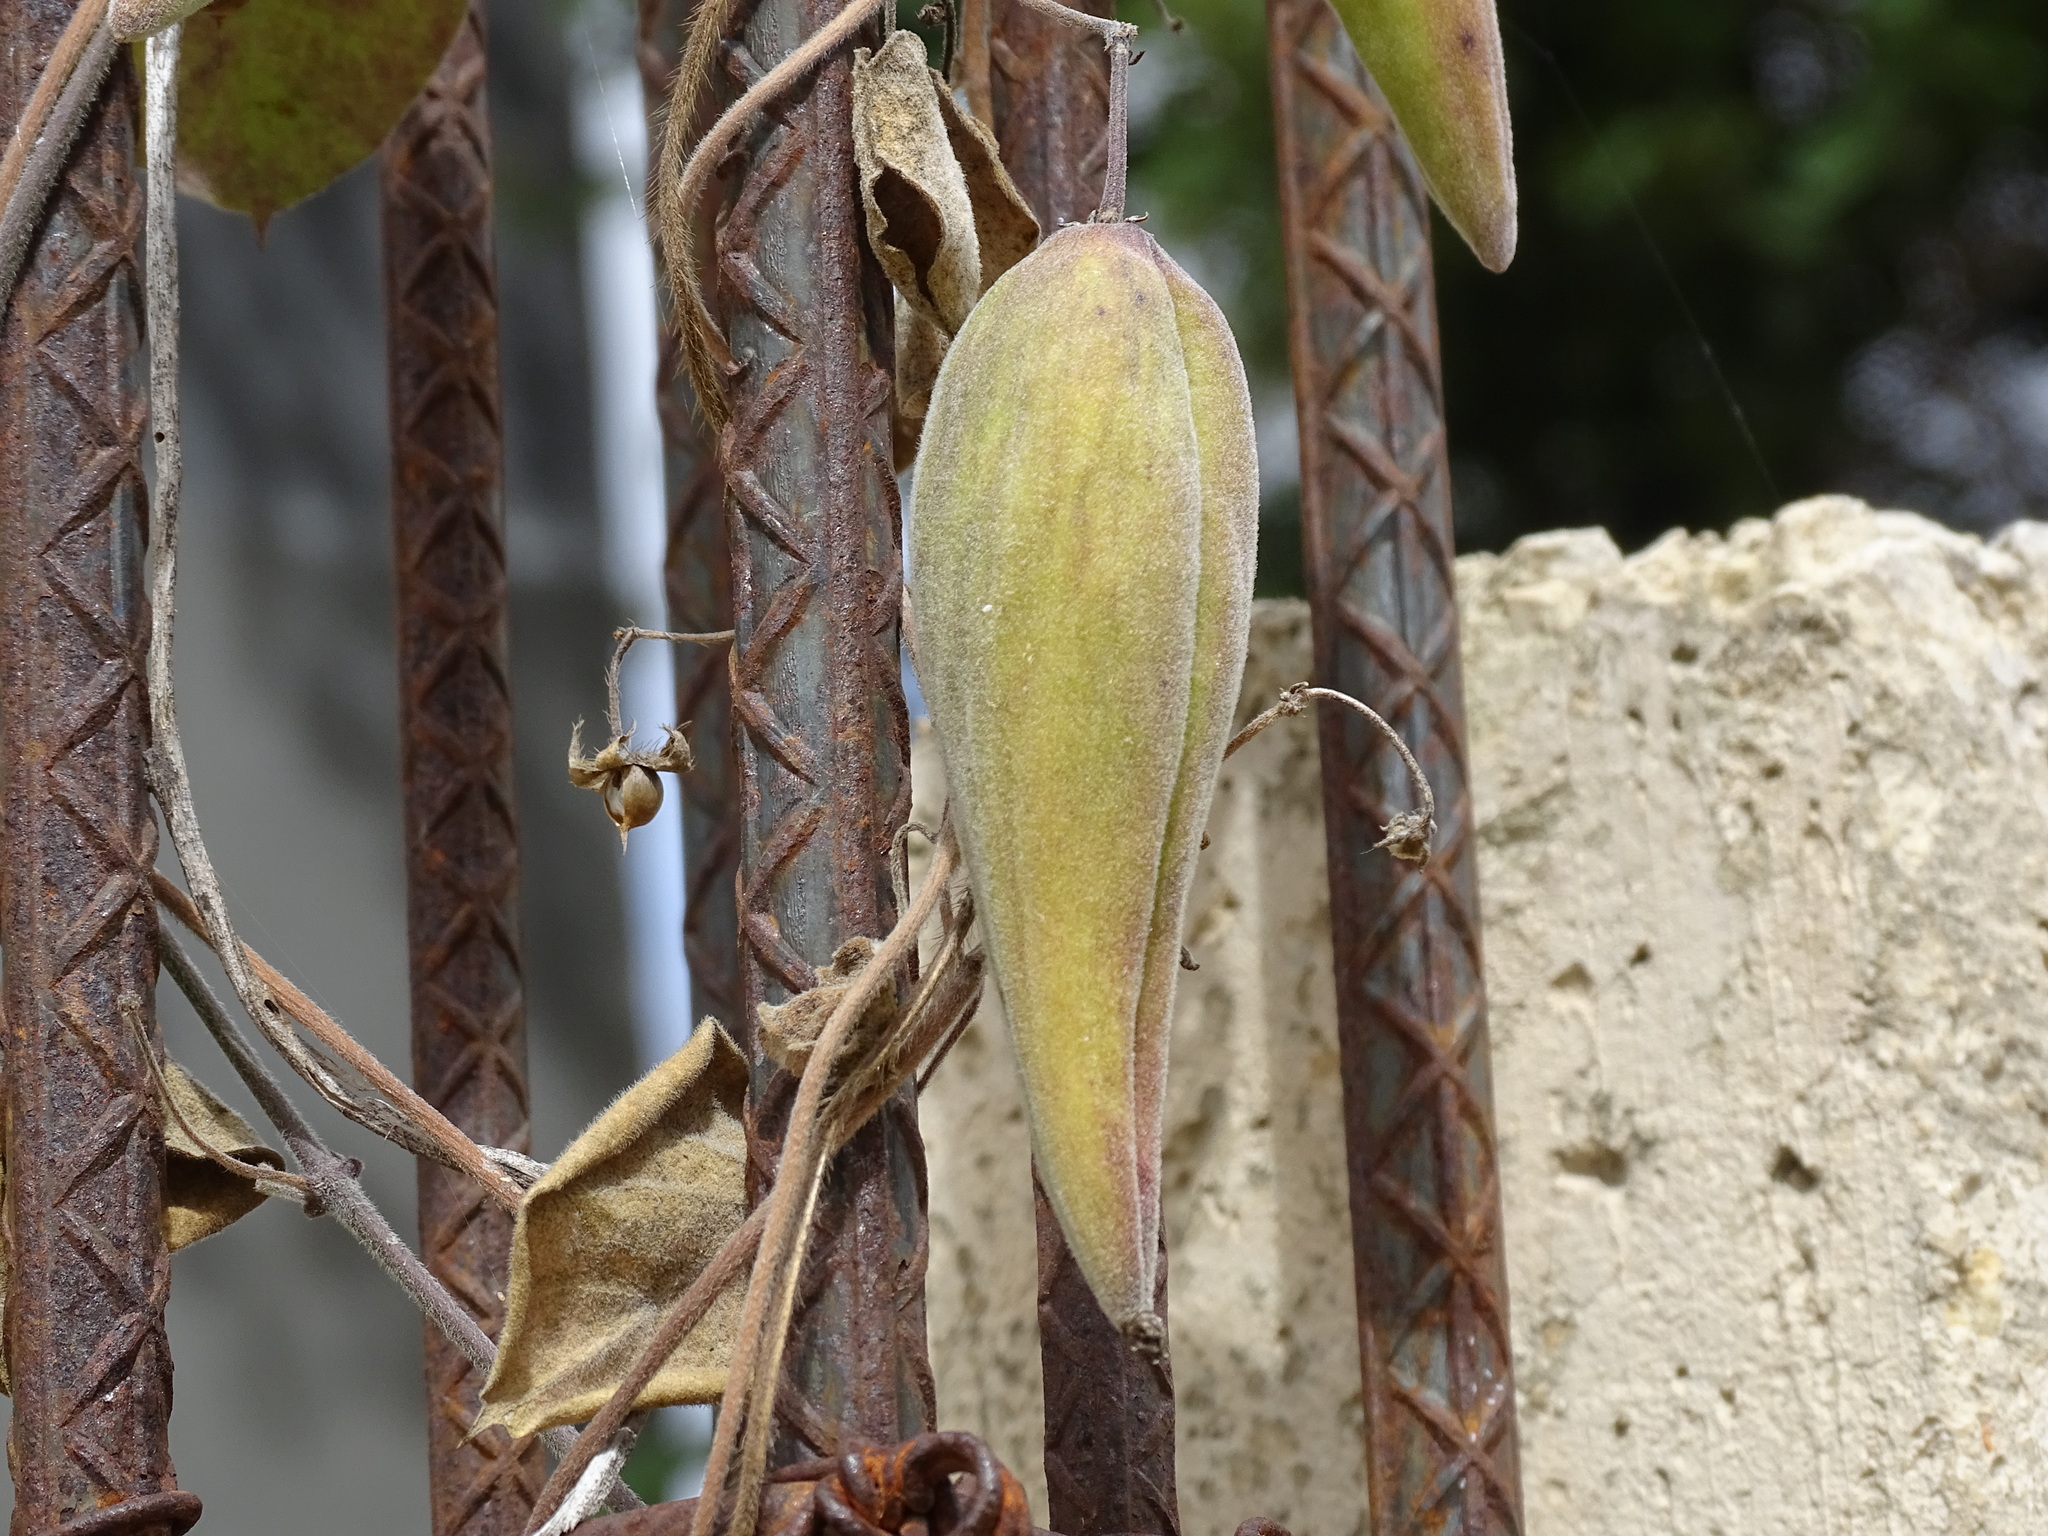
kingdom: Plantae
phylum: Tracheophyta
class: Magnoliopsida
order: Gentianales
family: Apocynaceae
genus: Funastrum
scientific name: Funastrum odoratum
